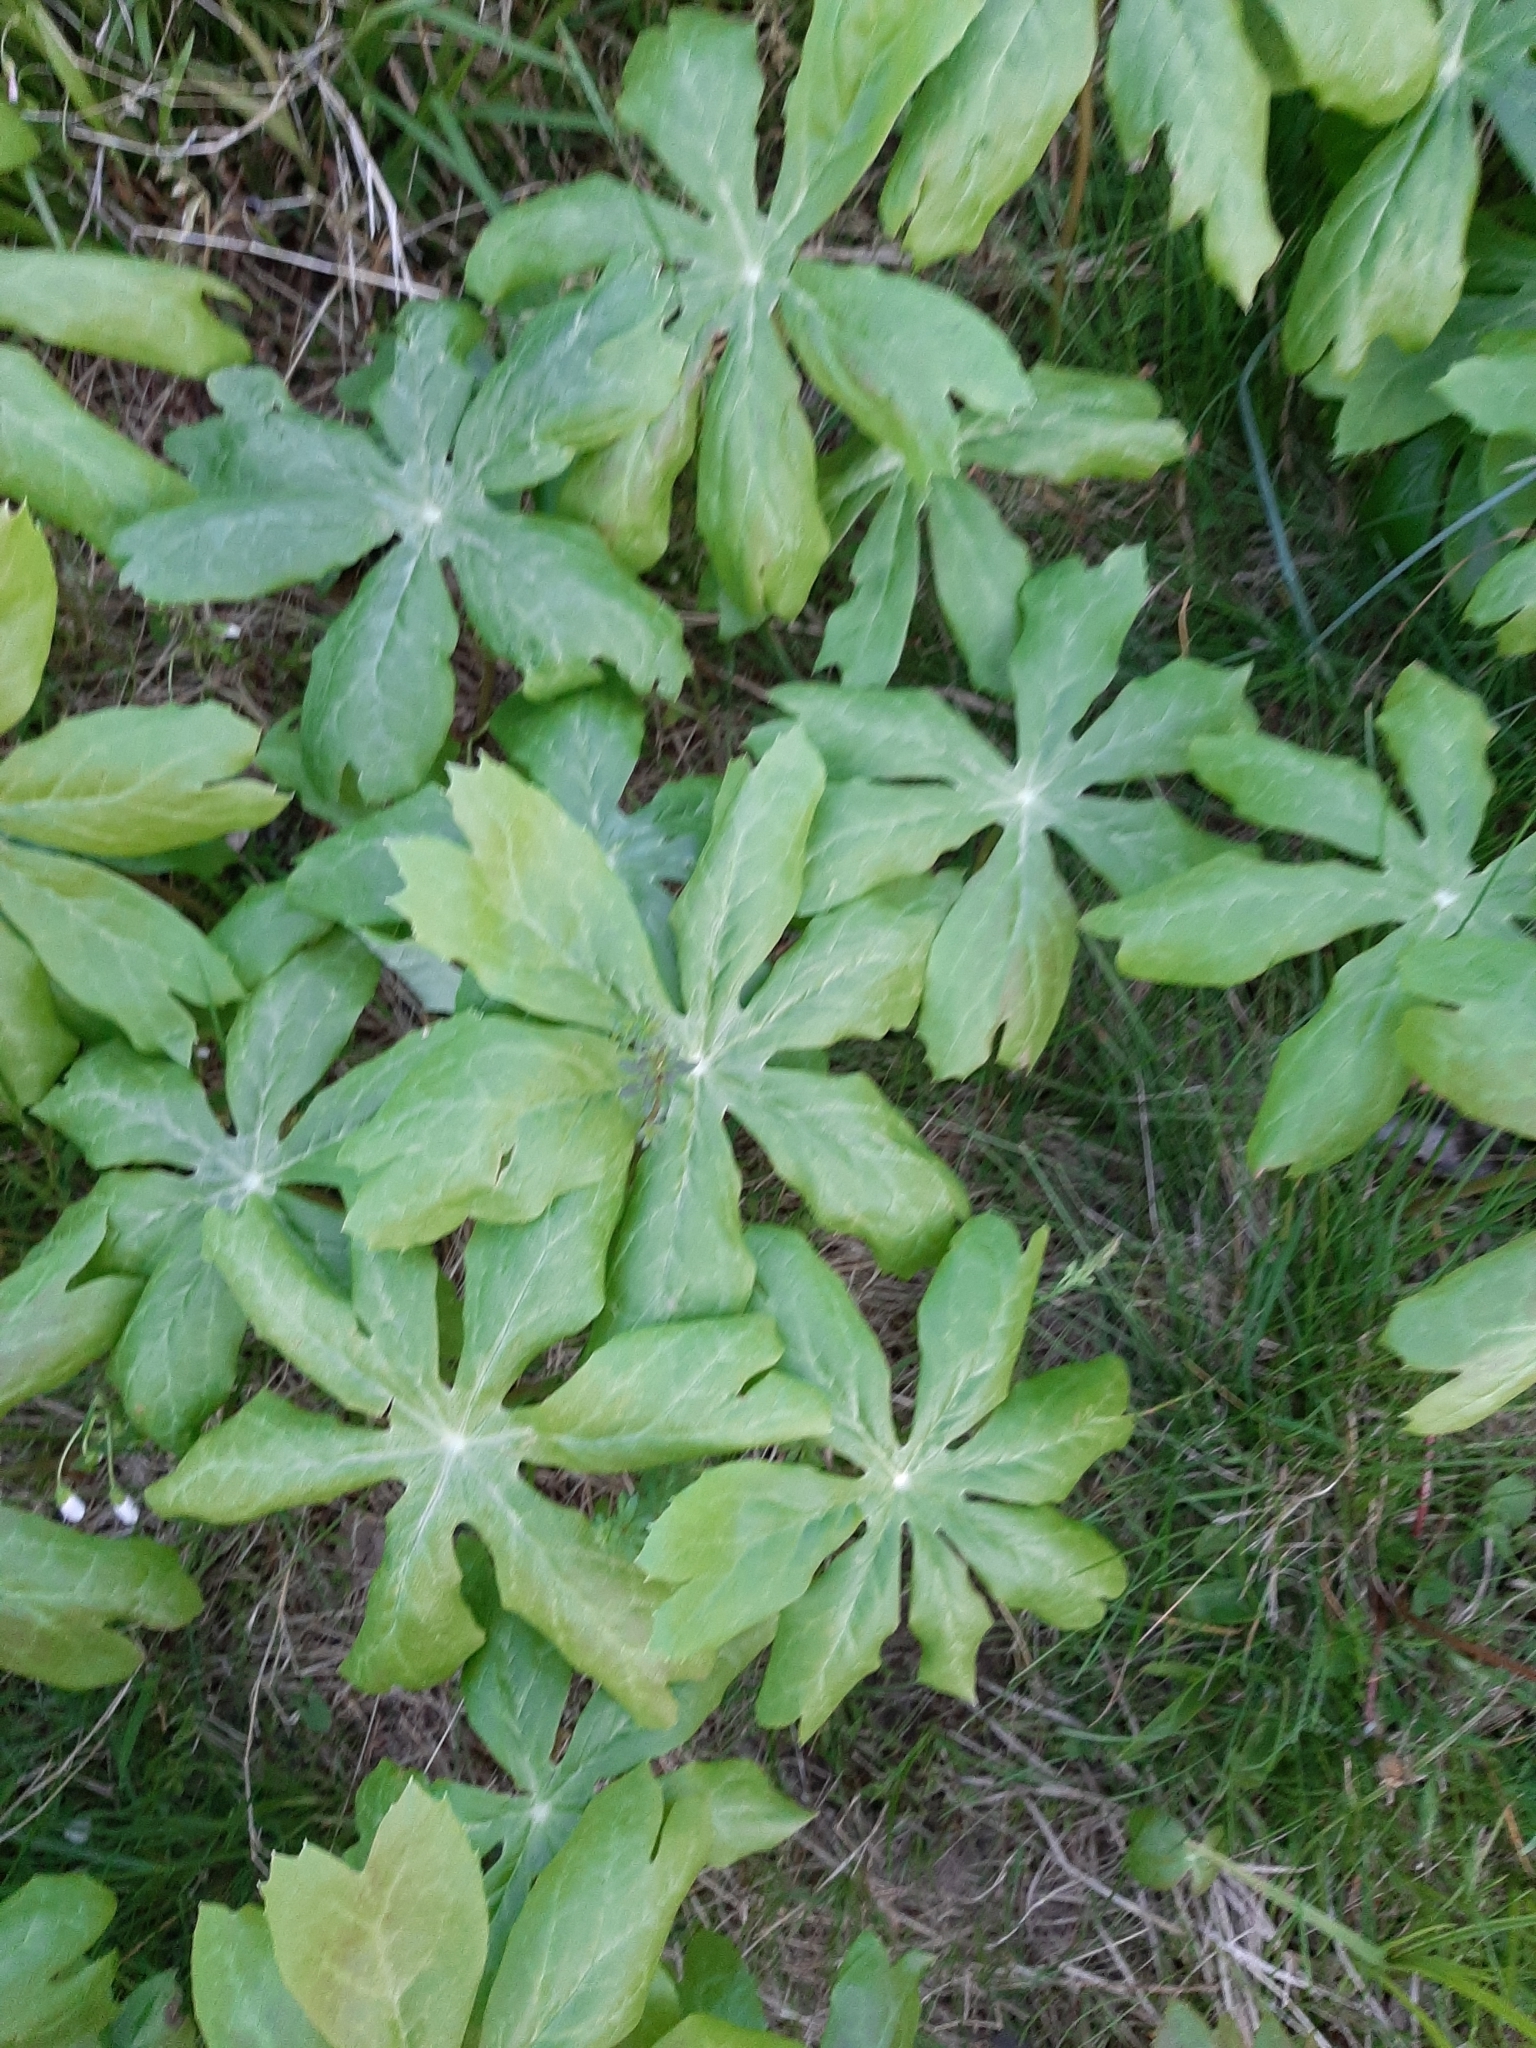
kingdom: Plantae
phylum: Tracheophyta
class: Magnoliopsida
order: Ranunculales
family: Berberidaceae
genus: Podophyllum
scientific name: Podophyllum peltatum
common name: Wild mandrake
